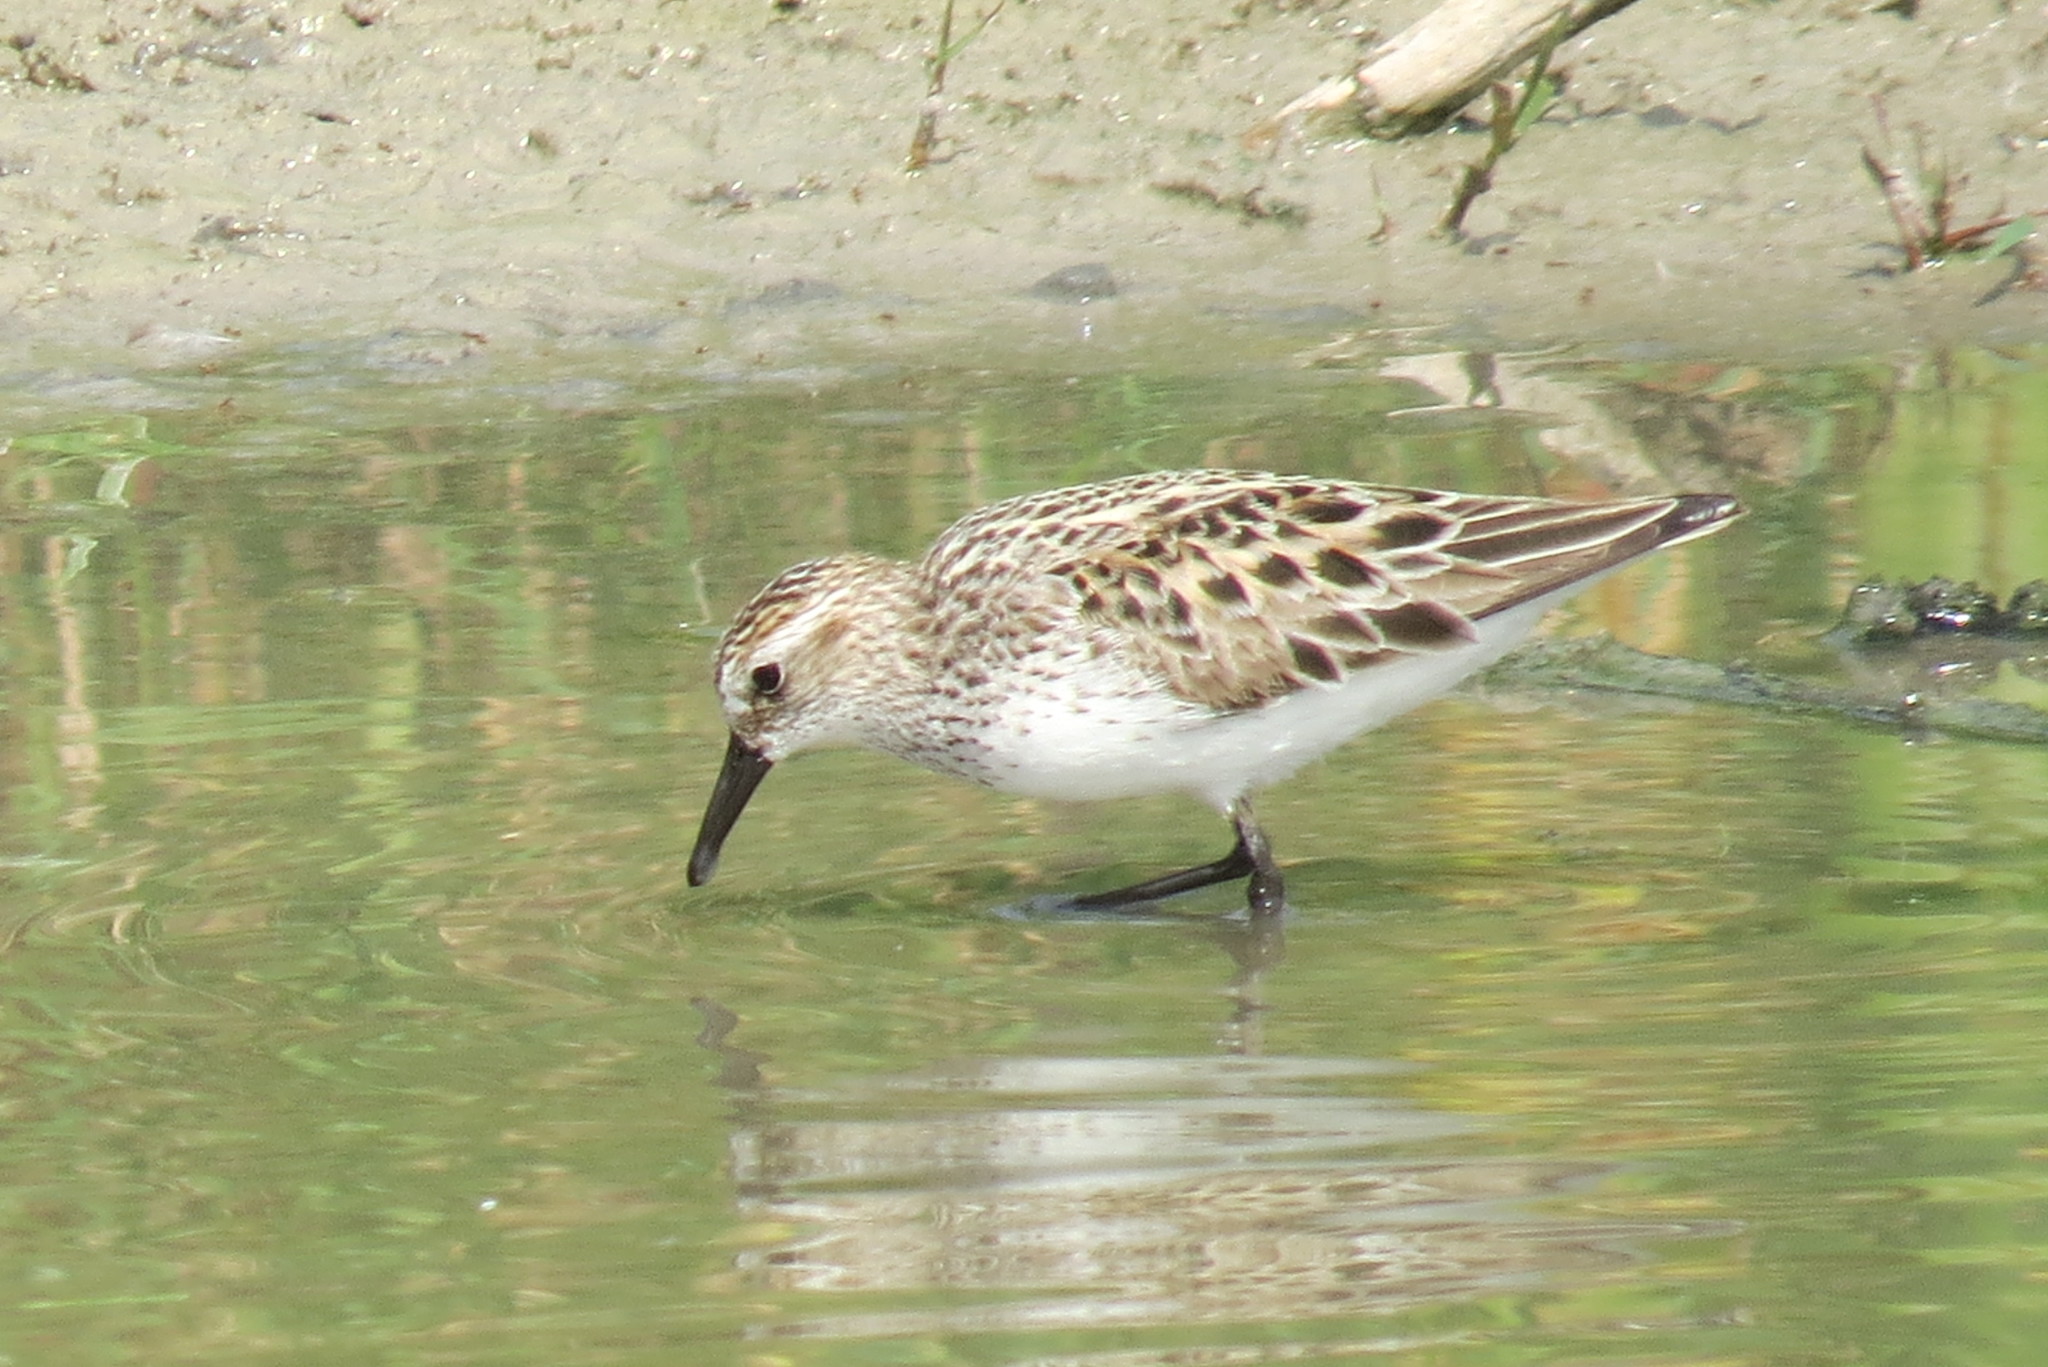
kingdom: Animalia
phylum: Chordata
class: Aves
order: Charadriiformes
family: Scolopacidae
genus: Calidris
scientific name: Calidris pusilla
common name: Semipalmated sandpiper
